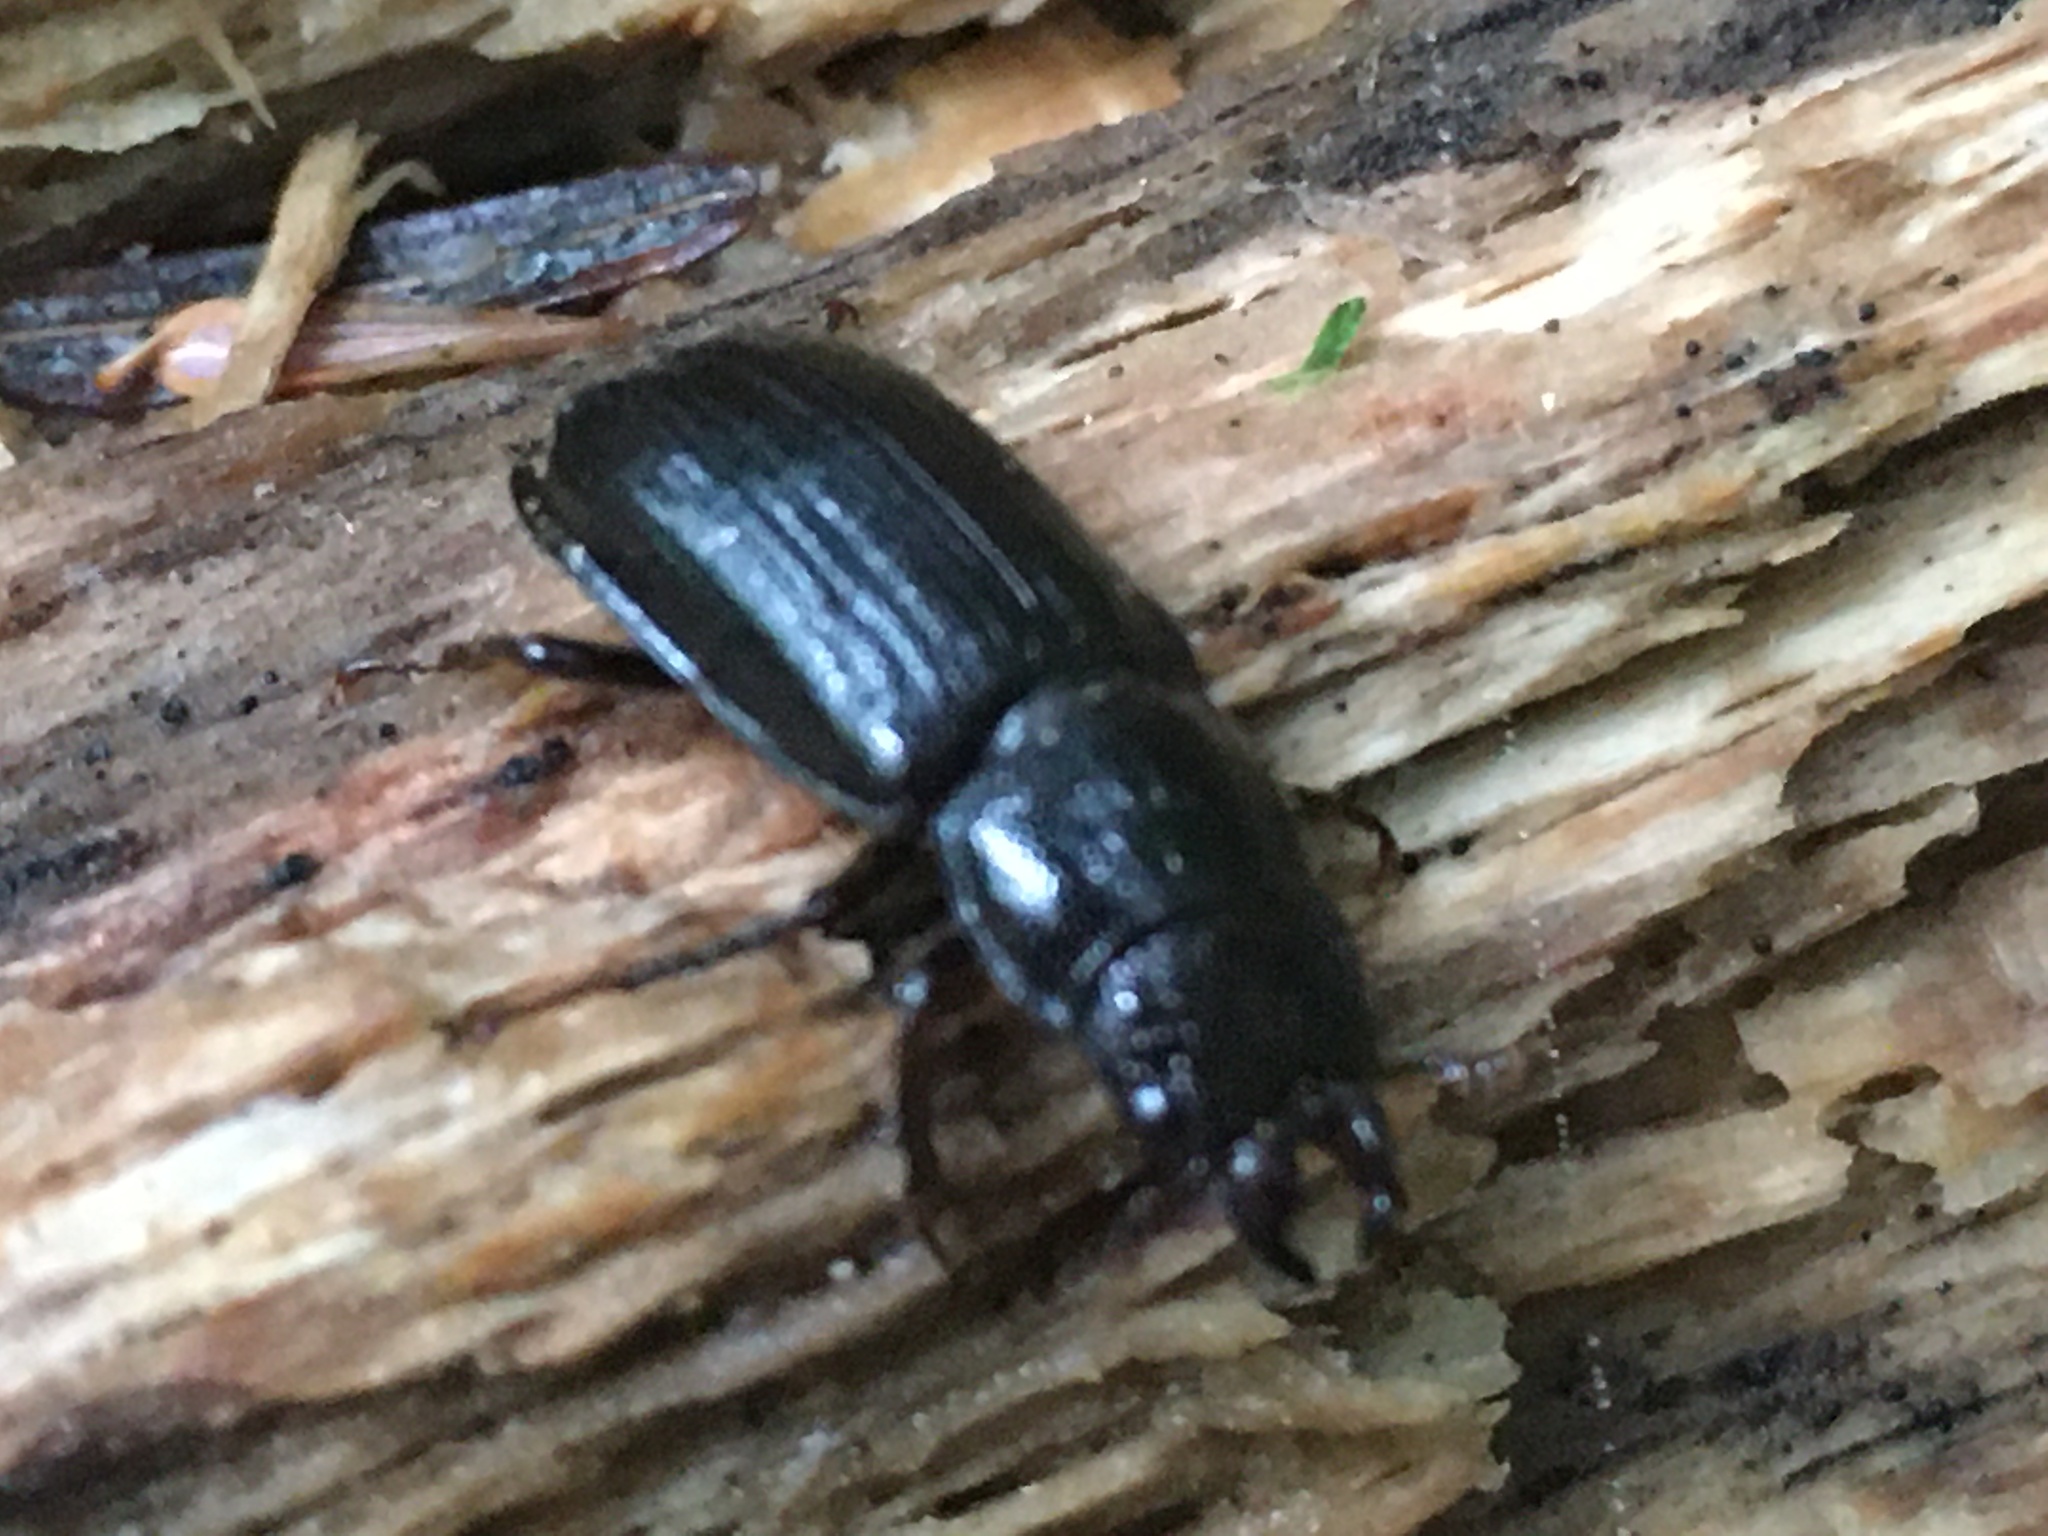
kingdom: Animalia
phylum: Arthropoda
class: Insecta
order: Coleoptera
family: Lucanidae
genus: Ceruchus
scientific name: Ceruchus piceus
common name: Red-rot decay stag beetle
